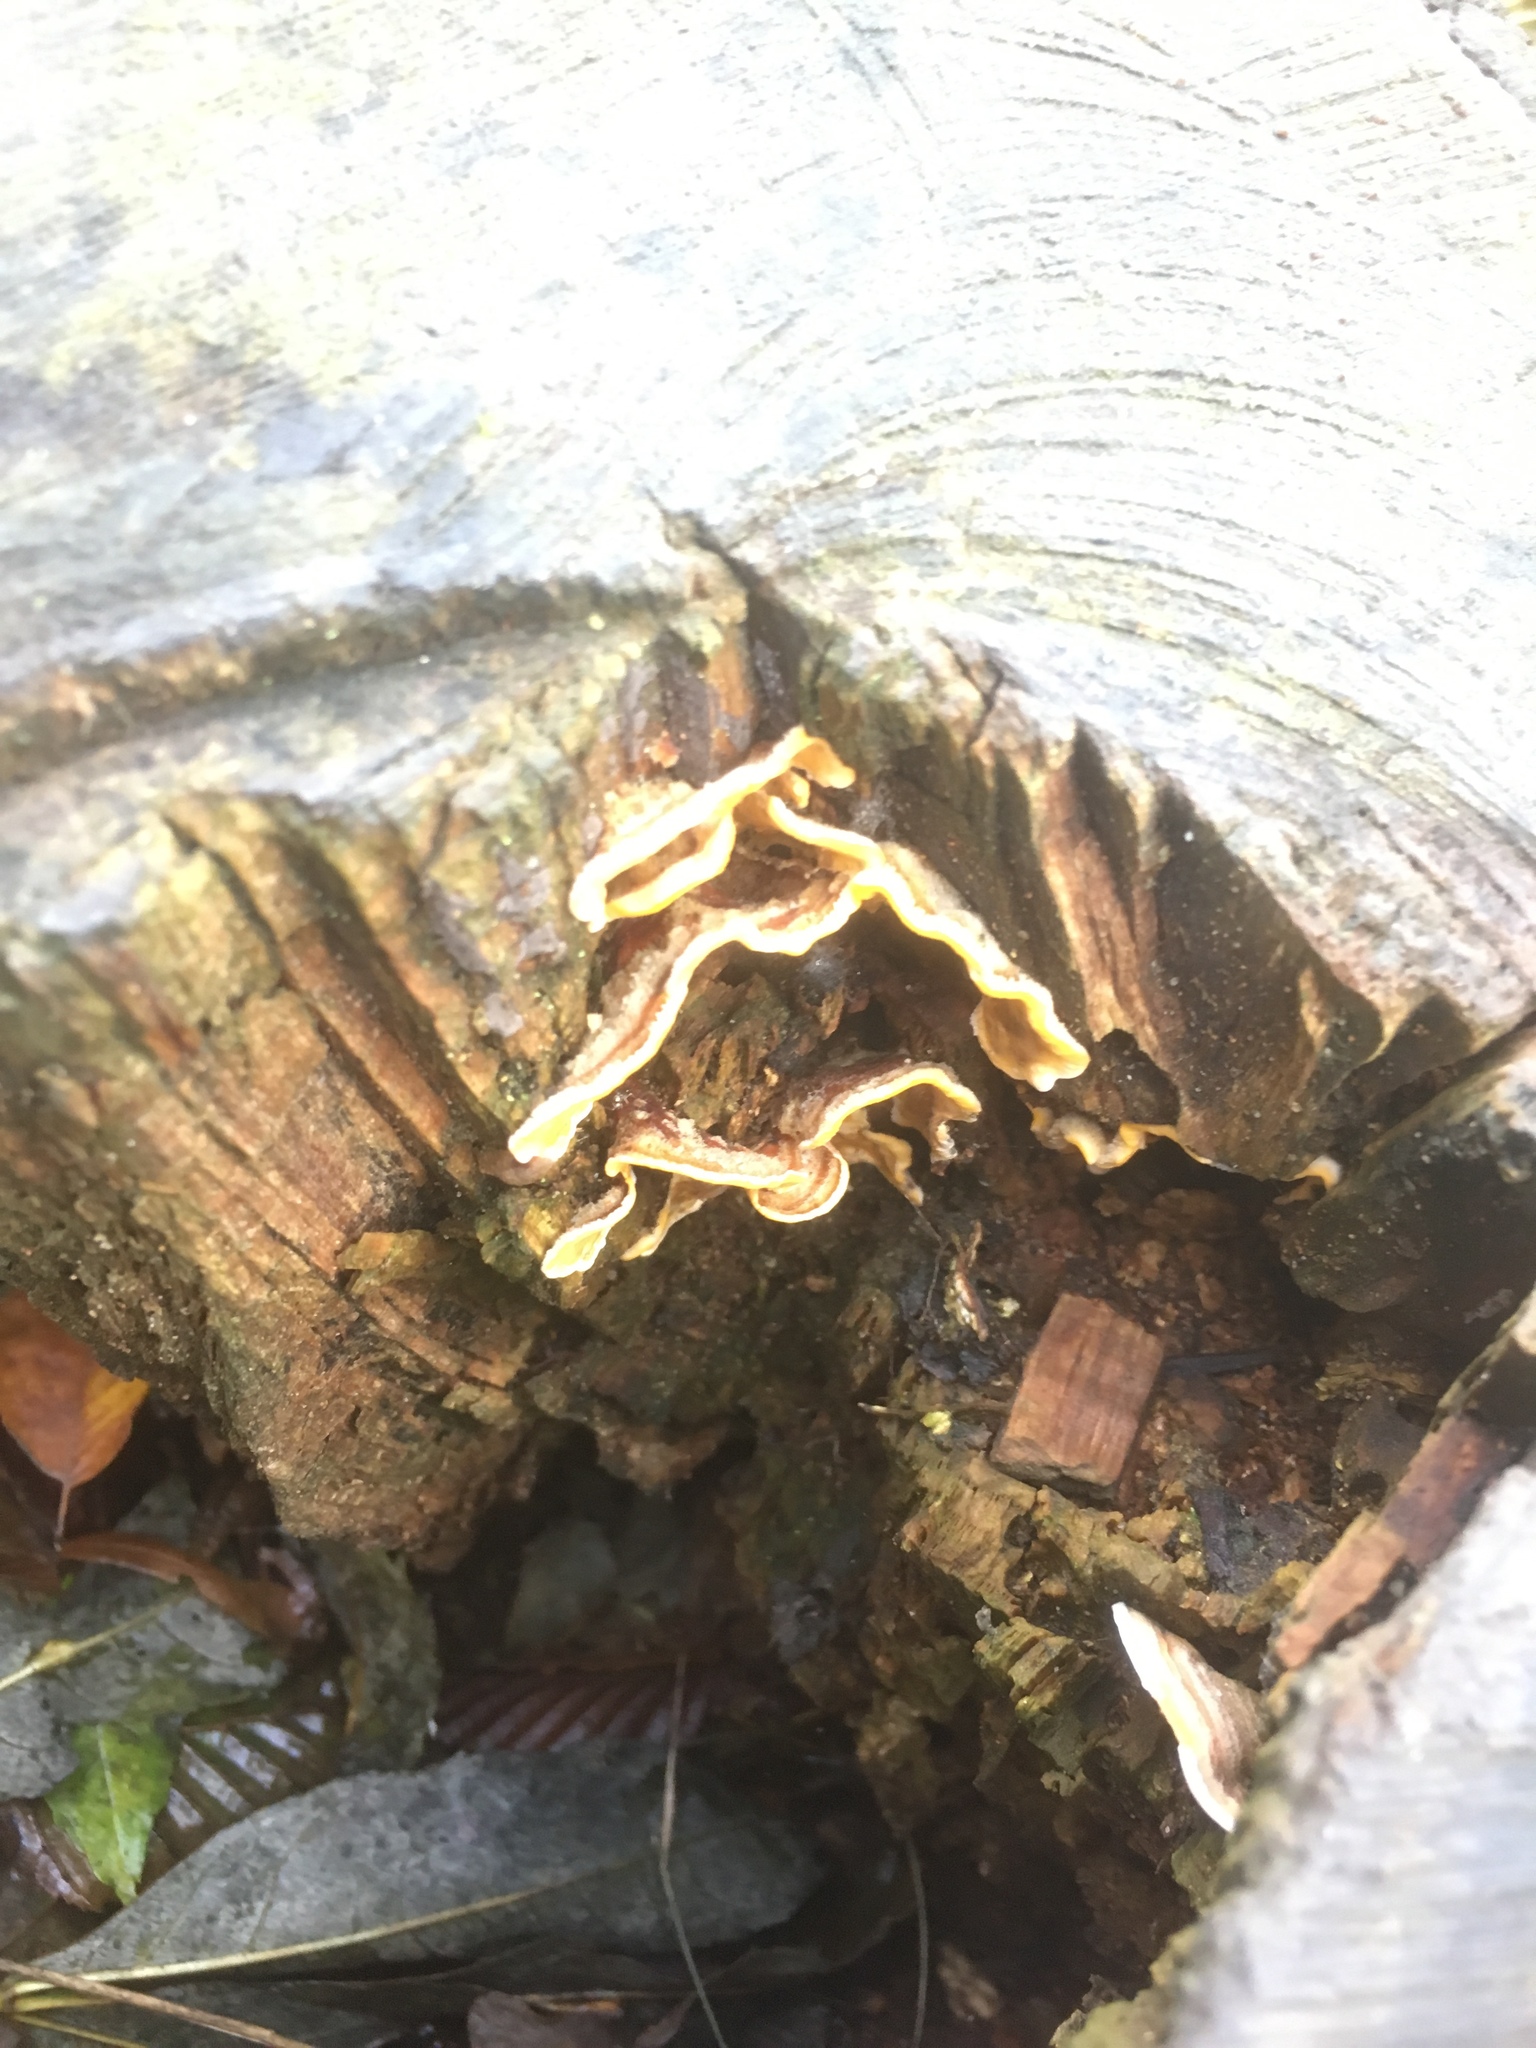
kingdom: Fungi
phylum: Basidiomycota
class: Agaricomycetes
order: Russulales
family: Stereaceae
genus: Stereum
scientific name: Stereum hirsutum
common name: Hairy curtain crust
